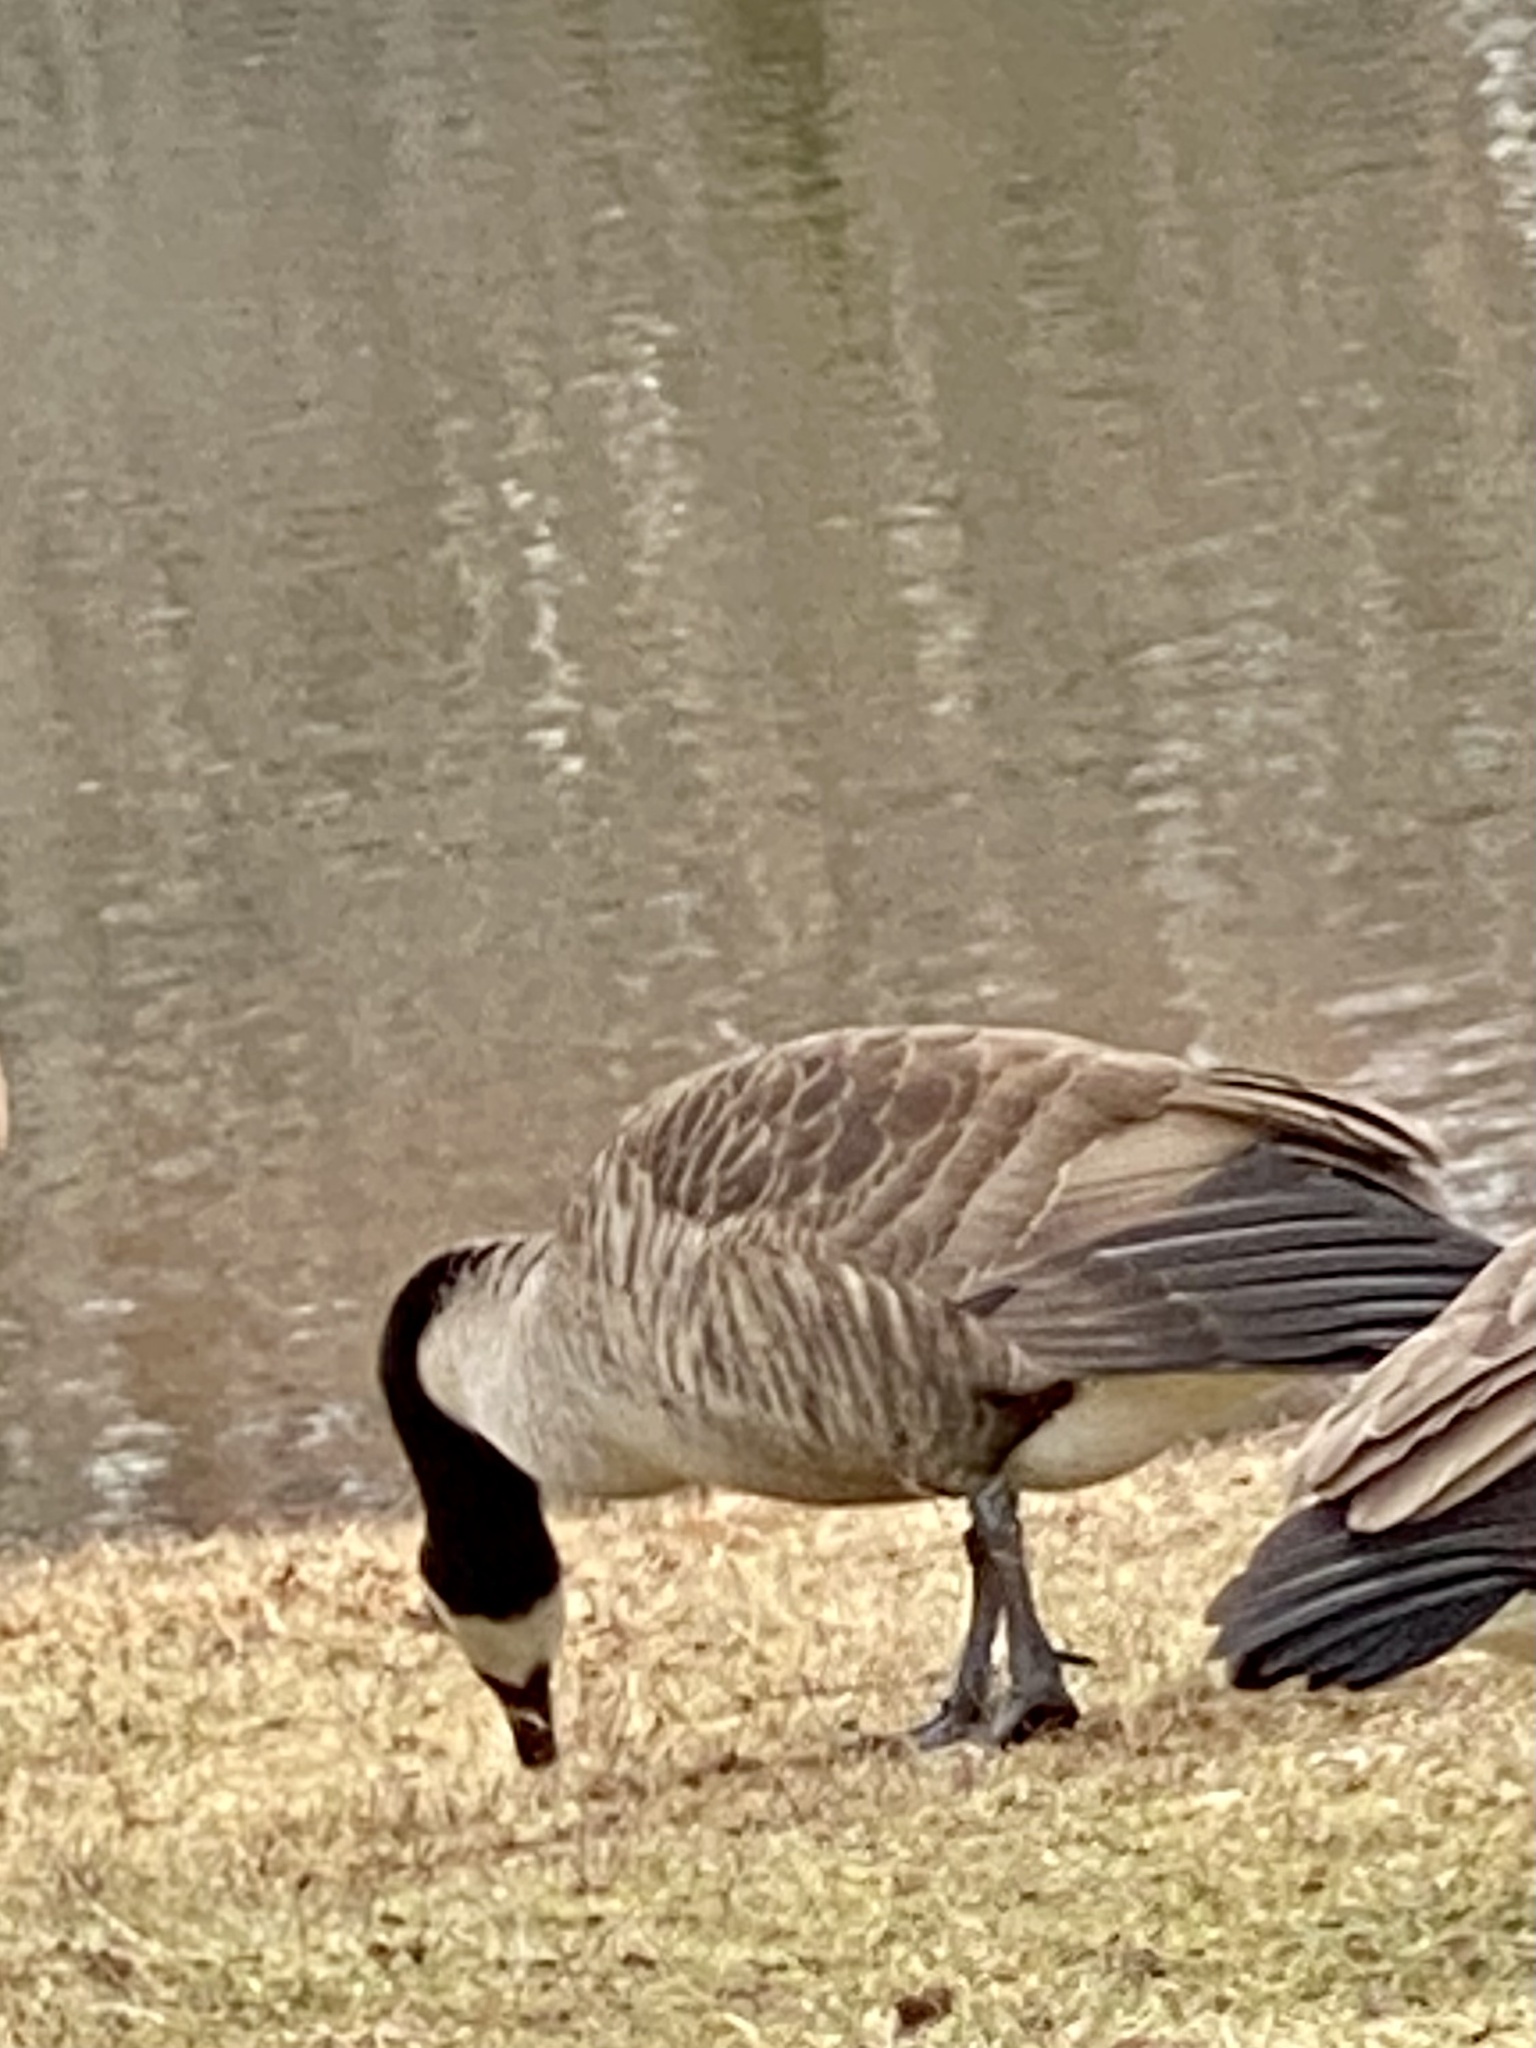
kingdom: Animalia
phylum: Chordata
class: Aves
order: Anseriformes
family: Anatidae
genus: Branta
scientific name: Branta canadensis
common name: Canada goose
